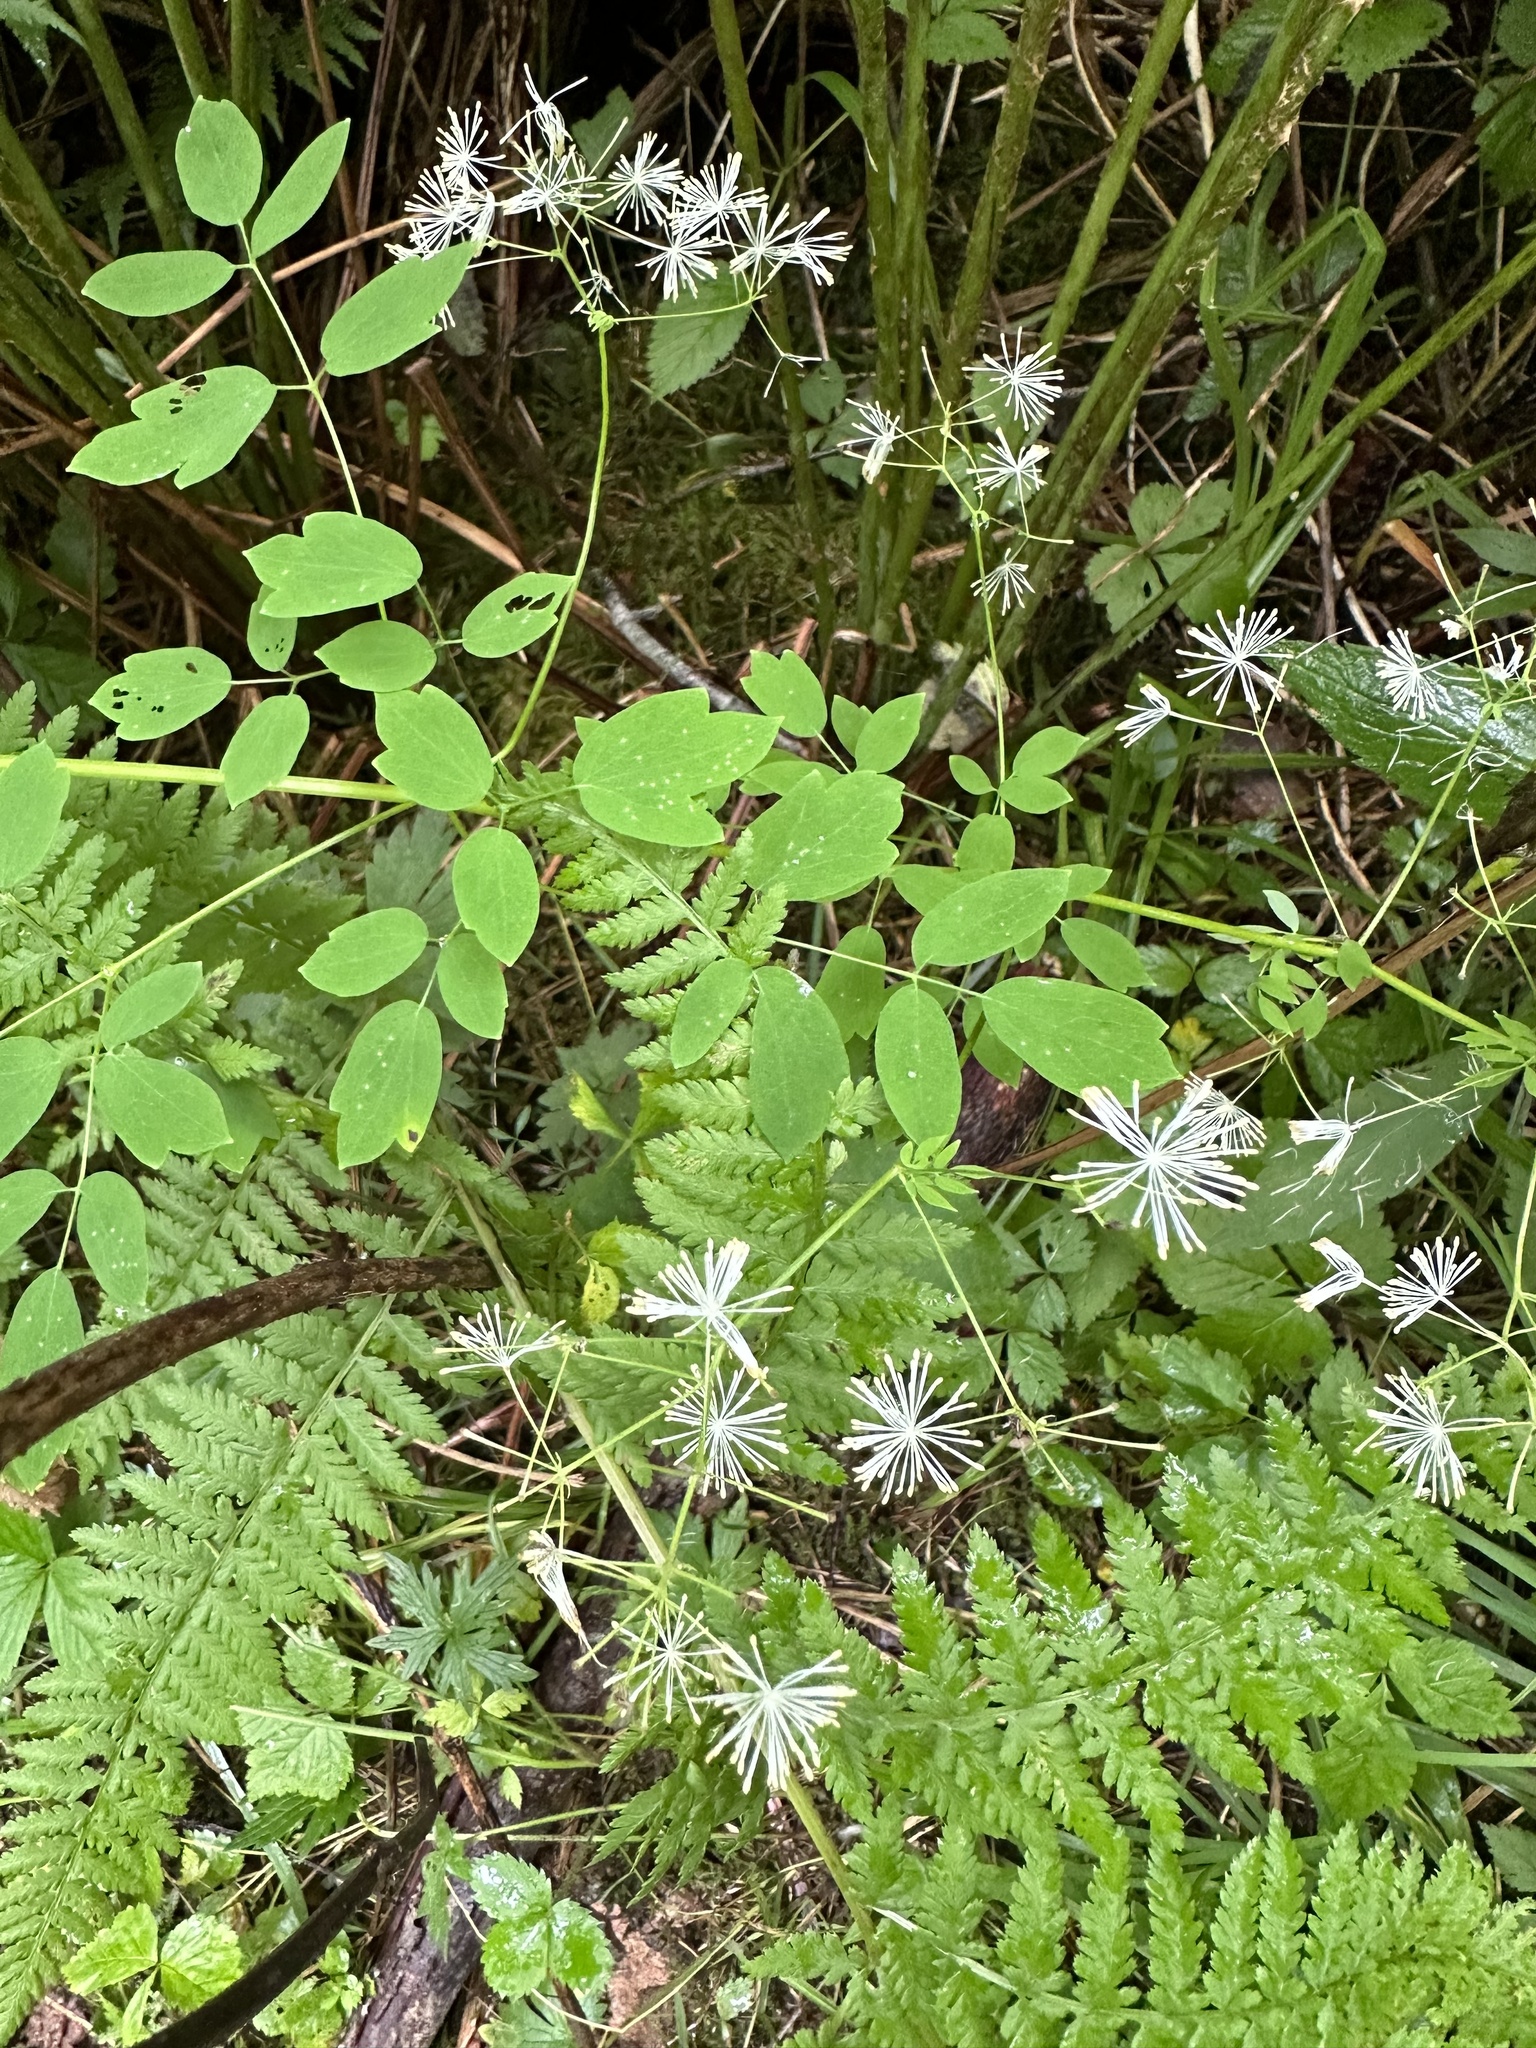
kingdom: Plantae
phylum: Tracheophyta
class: Magnoliopsida
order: Ranunculales
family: Ranunculaceae
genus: Thalictrum
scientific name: Thalictrum pubescens
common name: King-of-the-meadow
